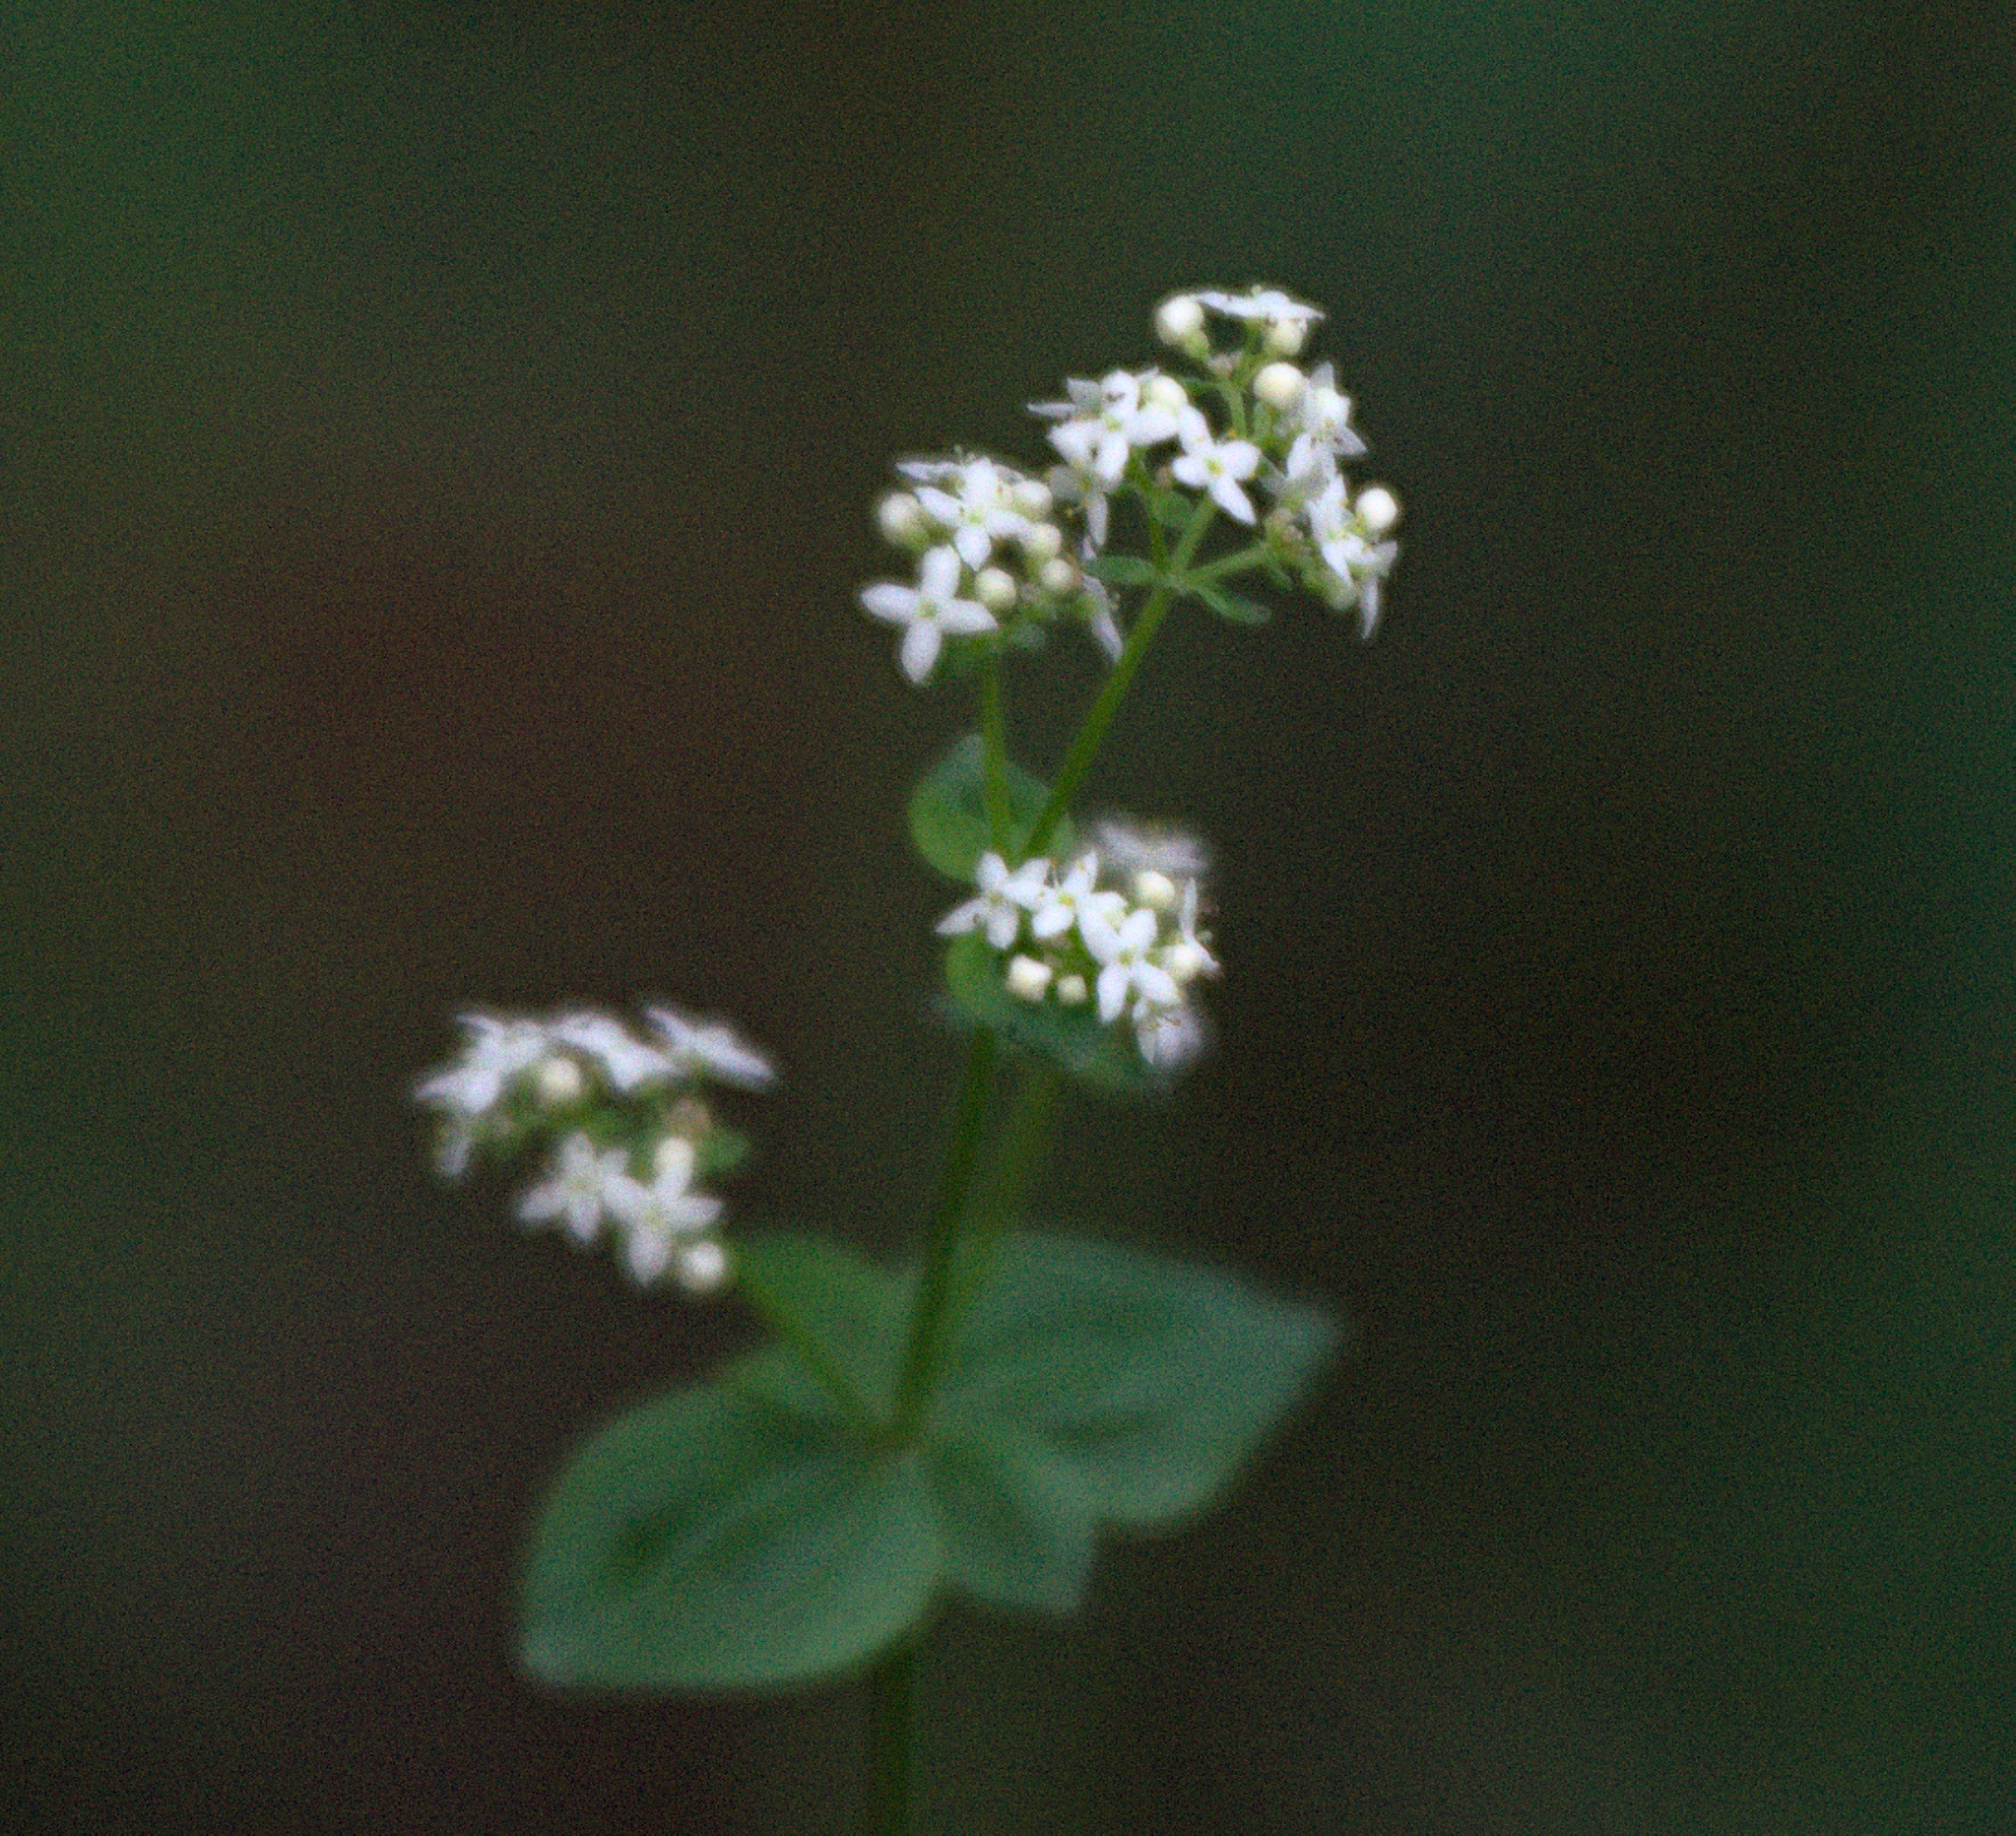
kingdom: Plantae
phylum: Tracheophyta
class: Magnoliopsida
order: Gentianales
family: Rubiaceae
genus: Galium
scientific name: Galium boreale
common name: Northern bedstraw
